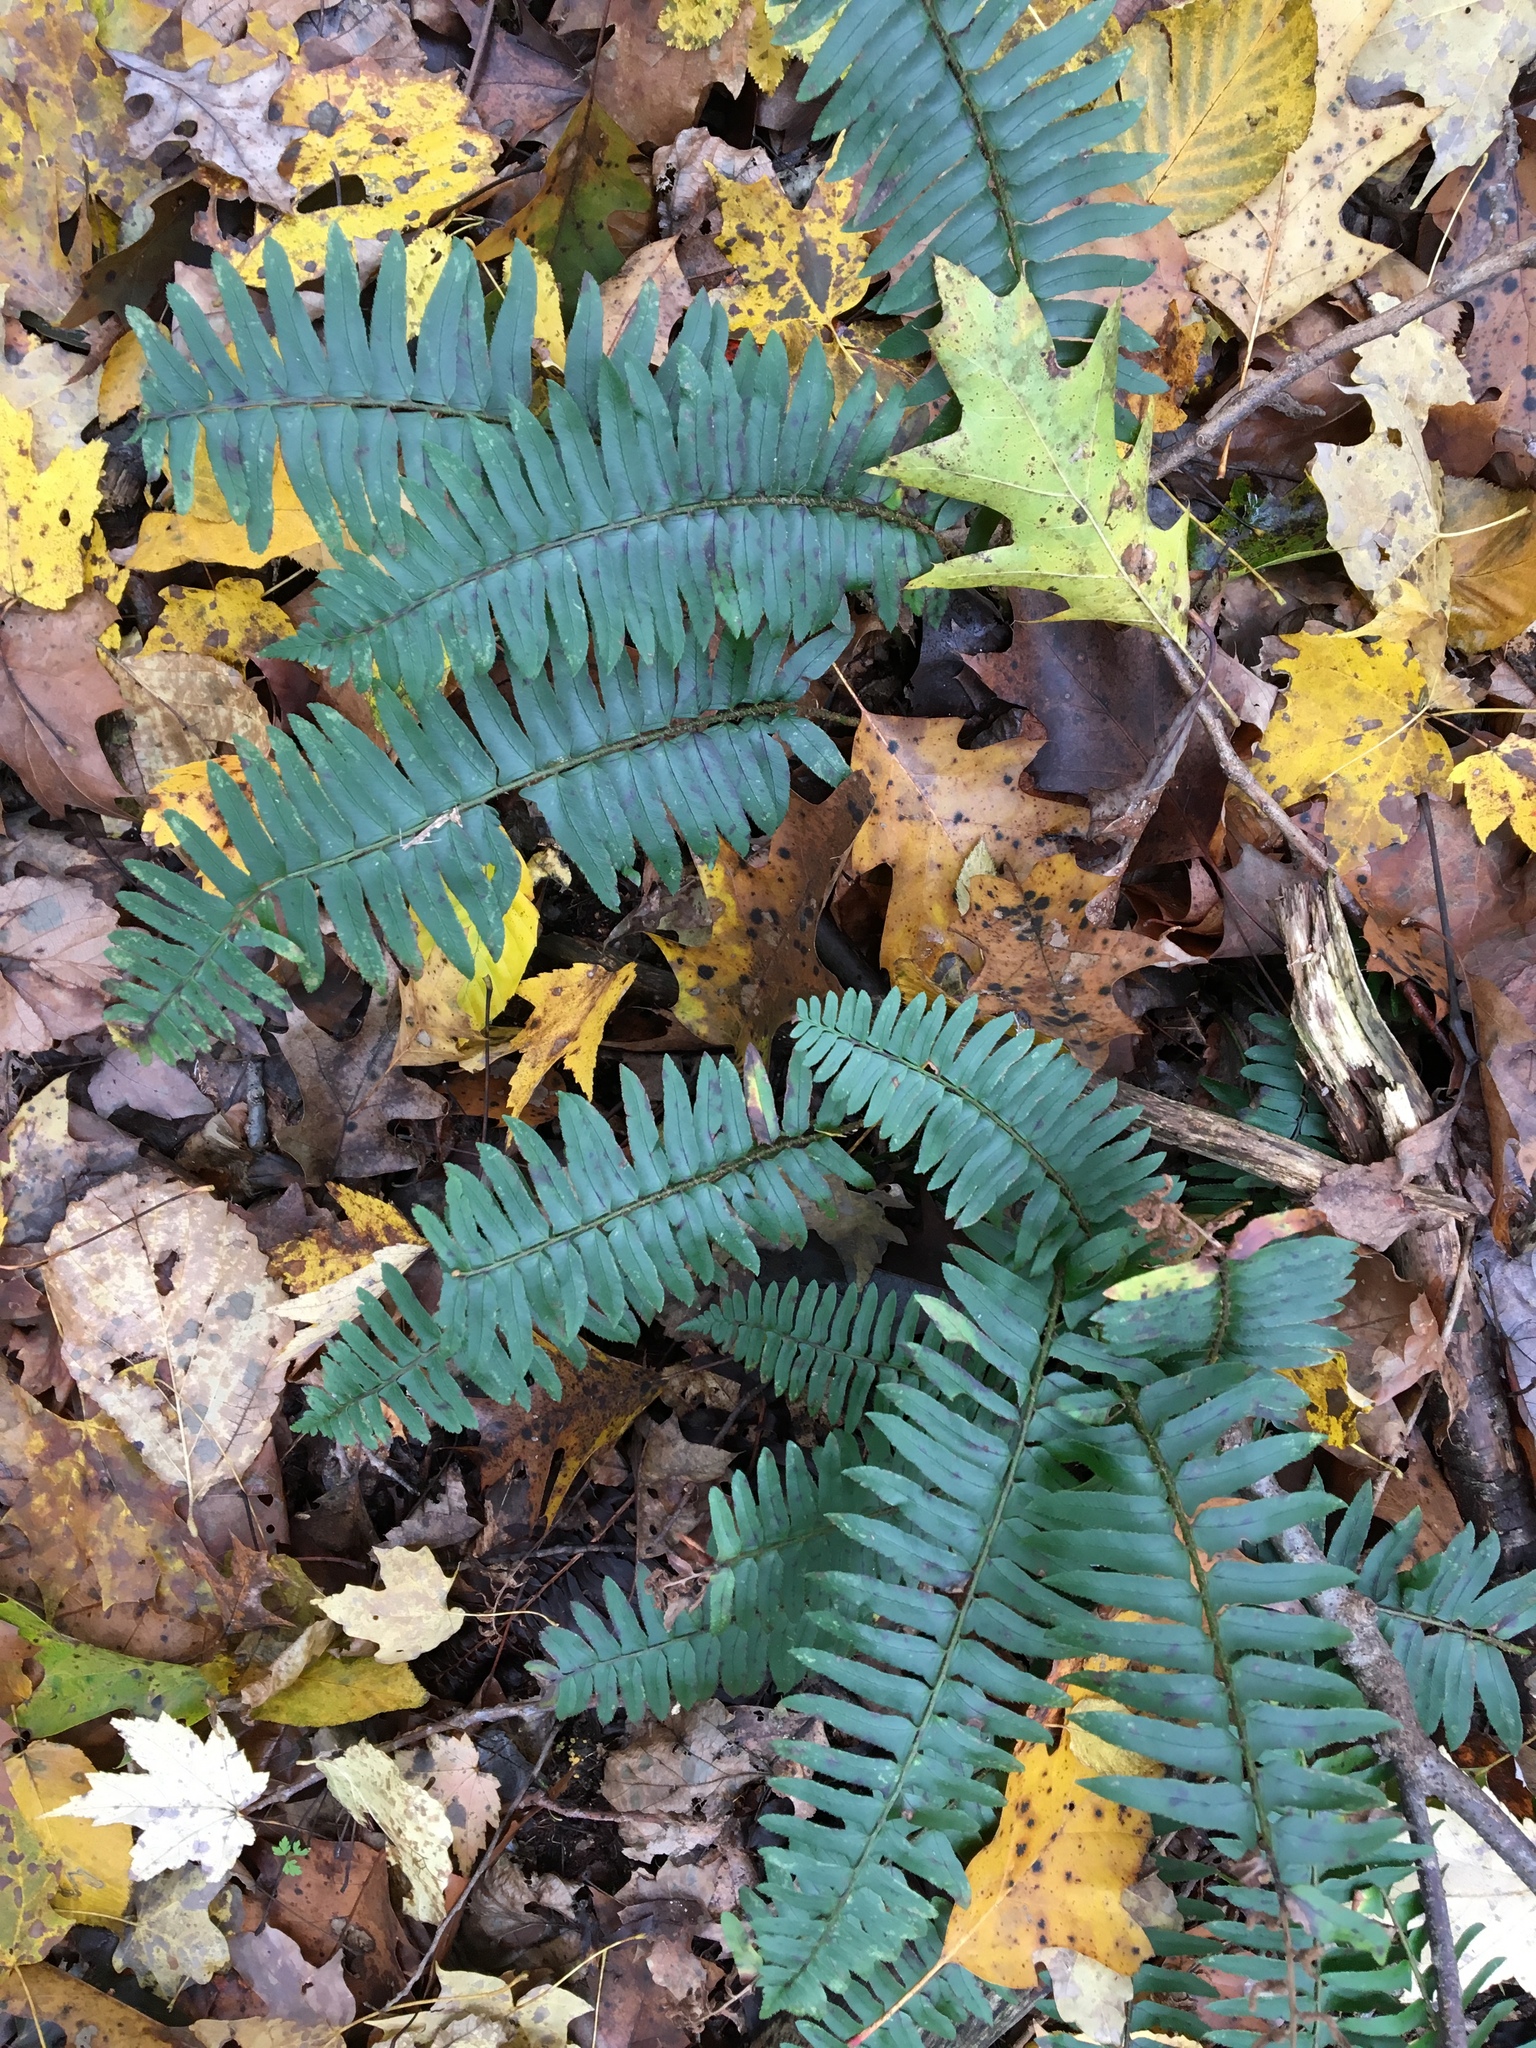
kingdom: Plantae
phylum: Tracheophyta
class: Polypodiopsida
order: Polypodiales
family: Dryopteridaceae
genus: Polystichum
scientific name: Polystichum acrostichoides
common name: Christmas fern
